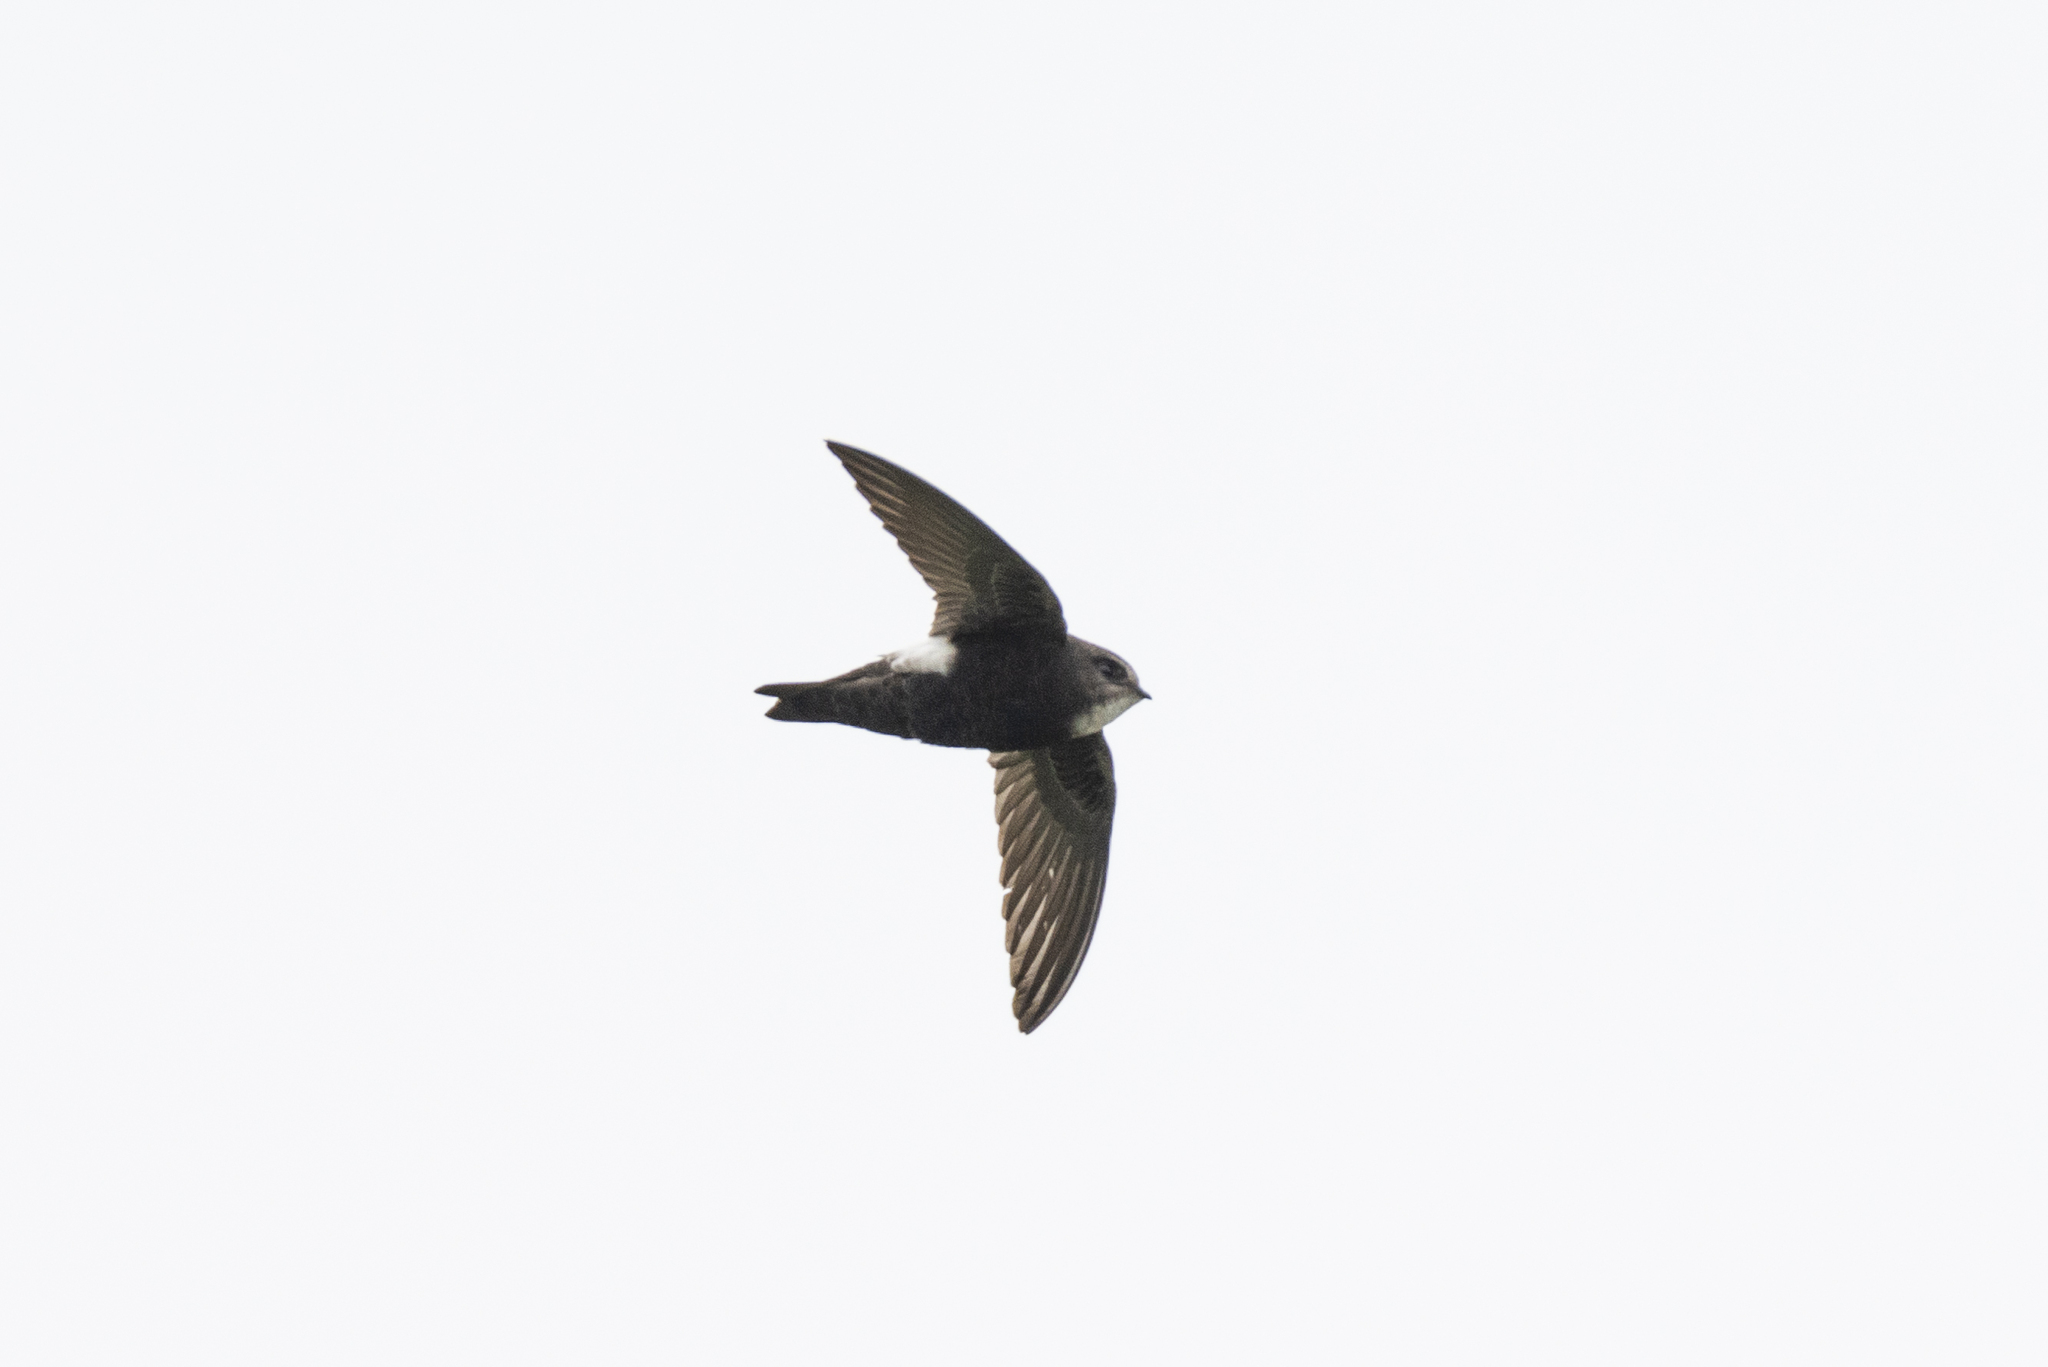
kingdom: Animalia
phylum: Chordata
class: Aves
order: Apodiformes
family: Apodidae
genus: Apus
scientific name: Apus nipalensis
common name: House swift
